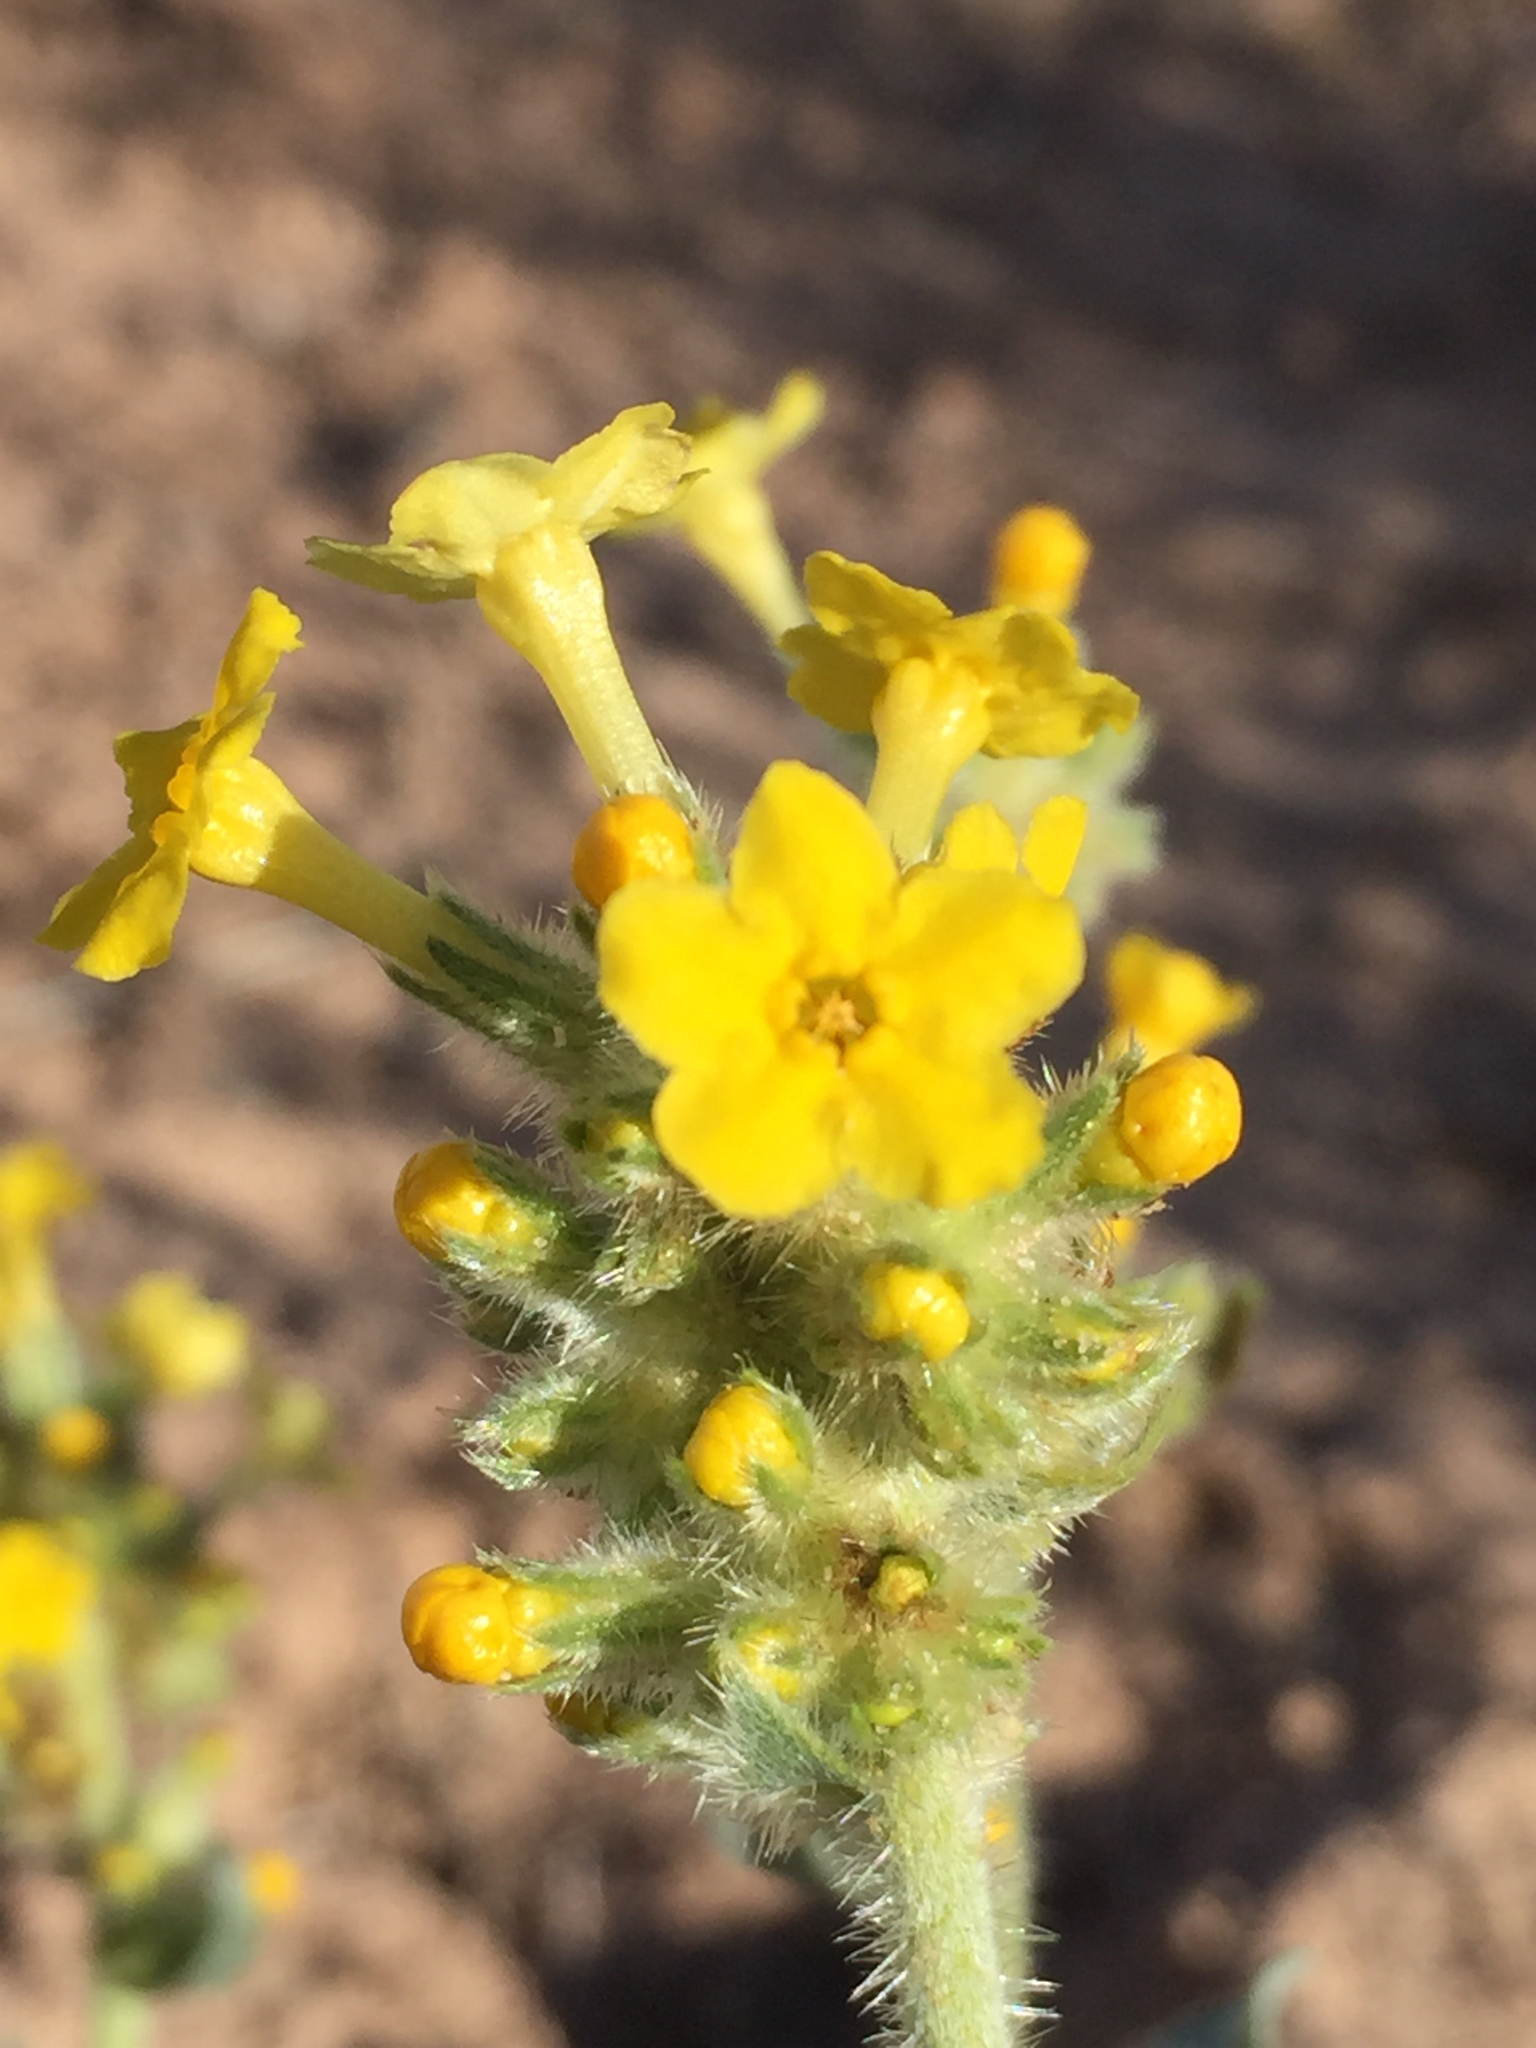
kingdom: Plantae
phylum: Tracheophyta
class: Magnoliopsida
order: Boraginales
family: Boraginaceae
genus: Oreocarya
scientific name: Oreocarya confertiflora
